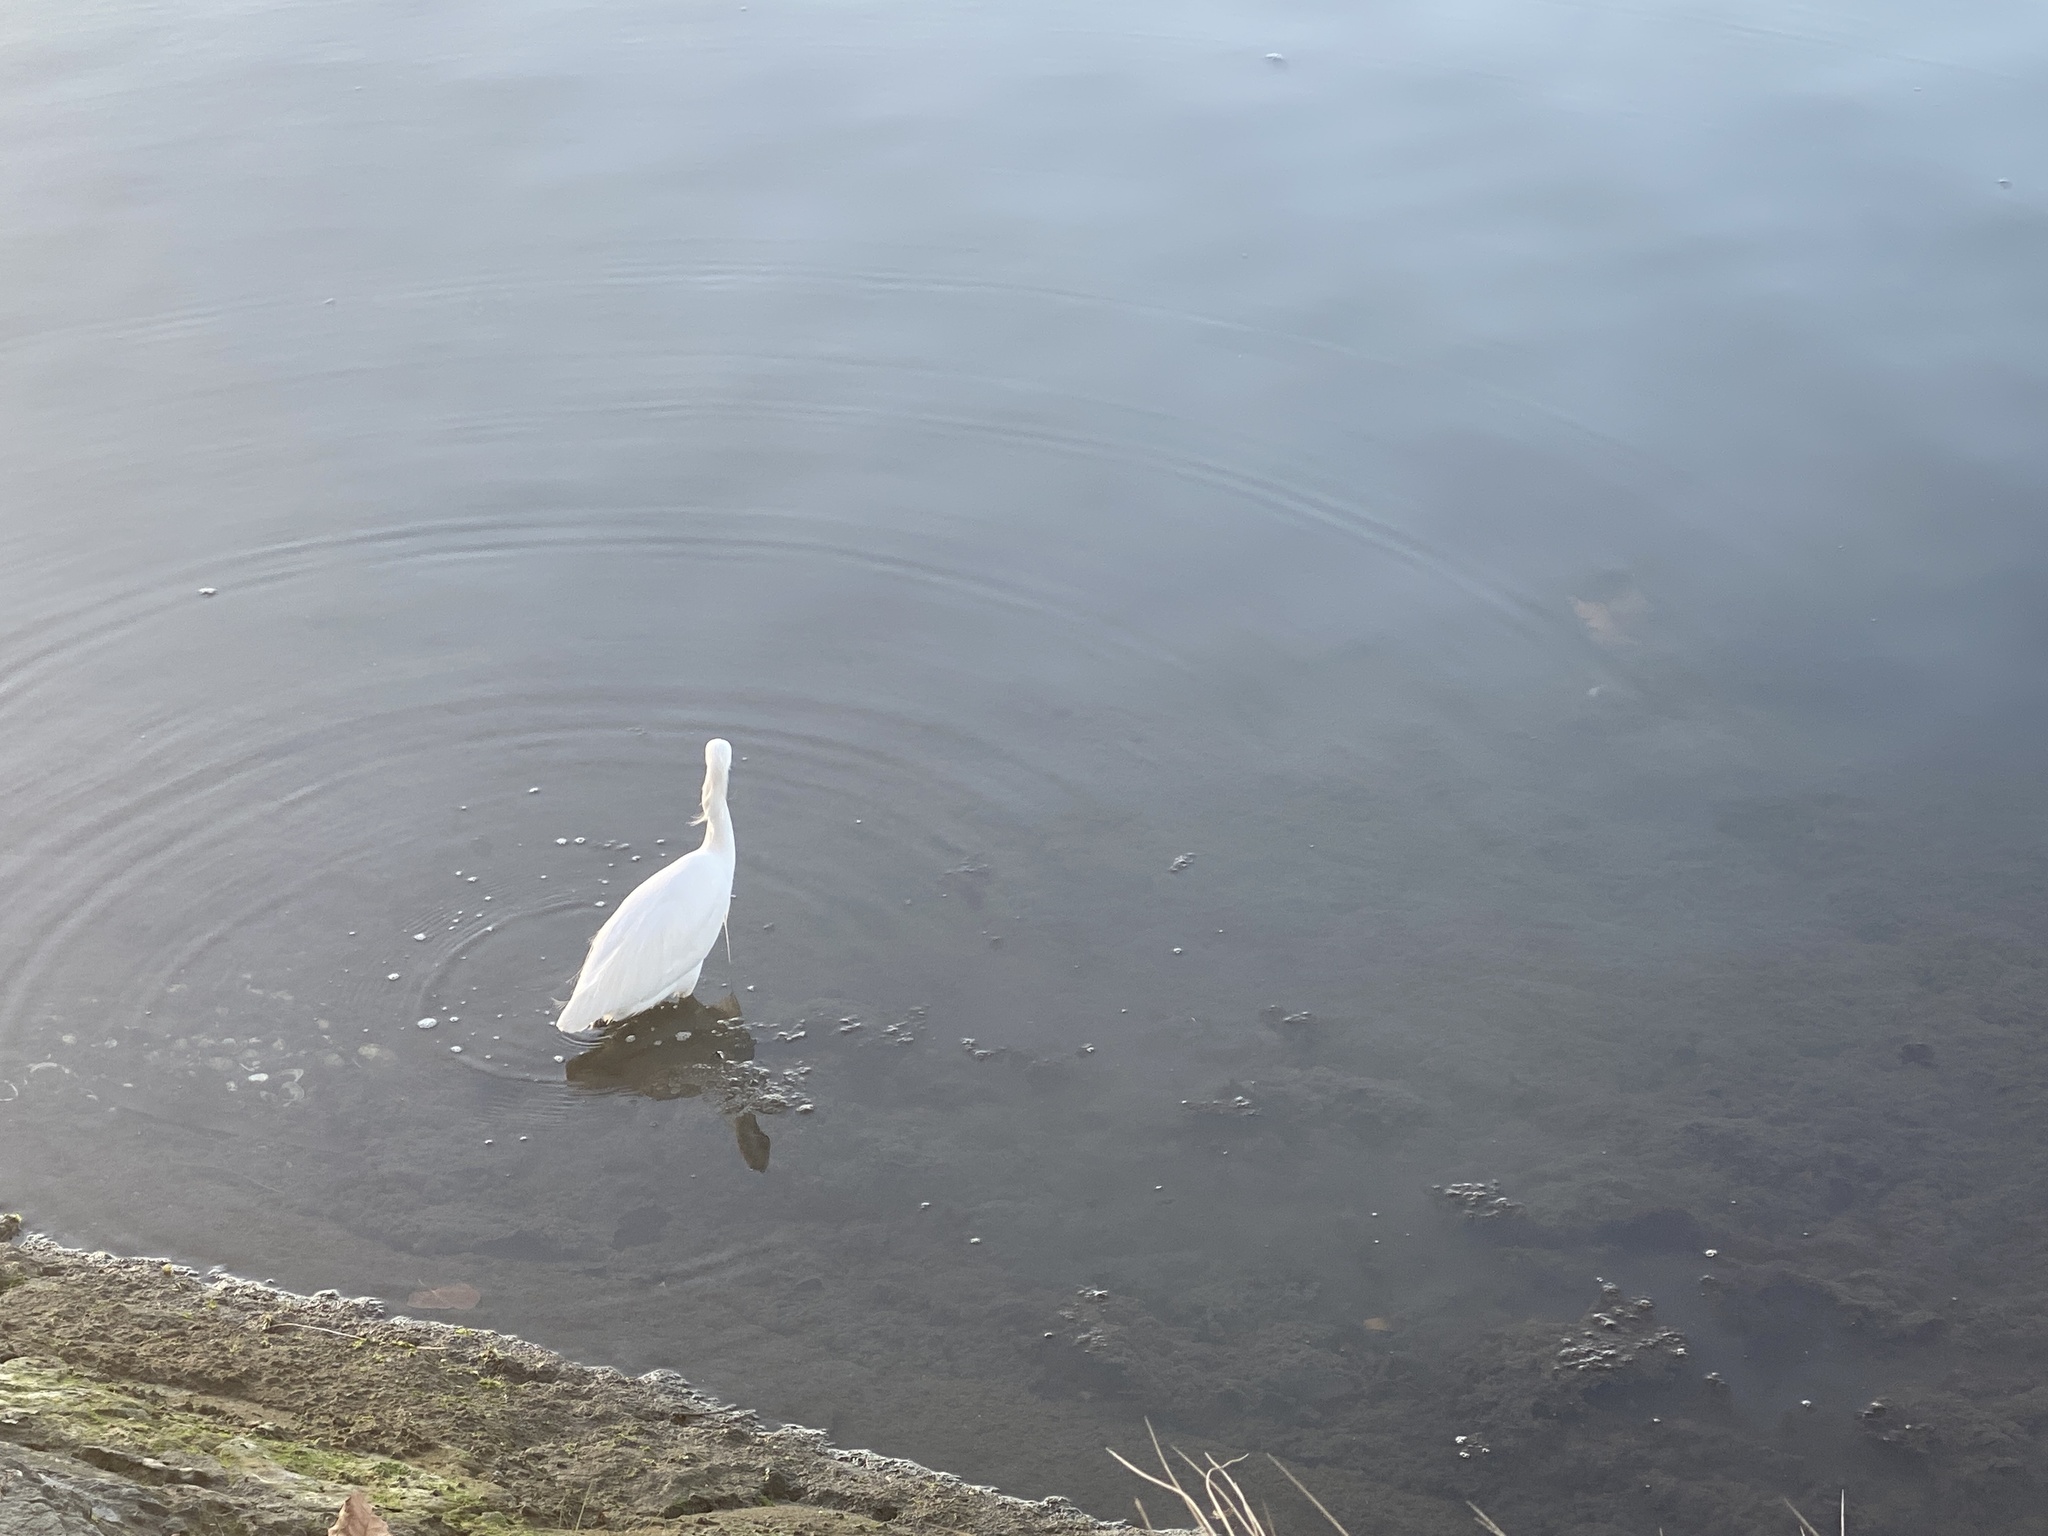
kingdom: Animalia
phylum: Chordata
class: Aves
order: Pelecaniformes
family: Ardeidae
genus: Egretta
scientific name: Egretta thula
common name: Snowy egret
